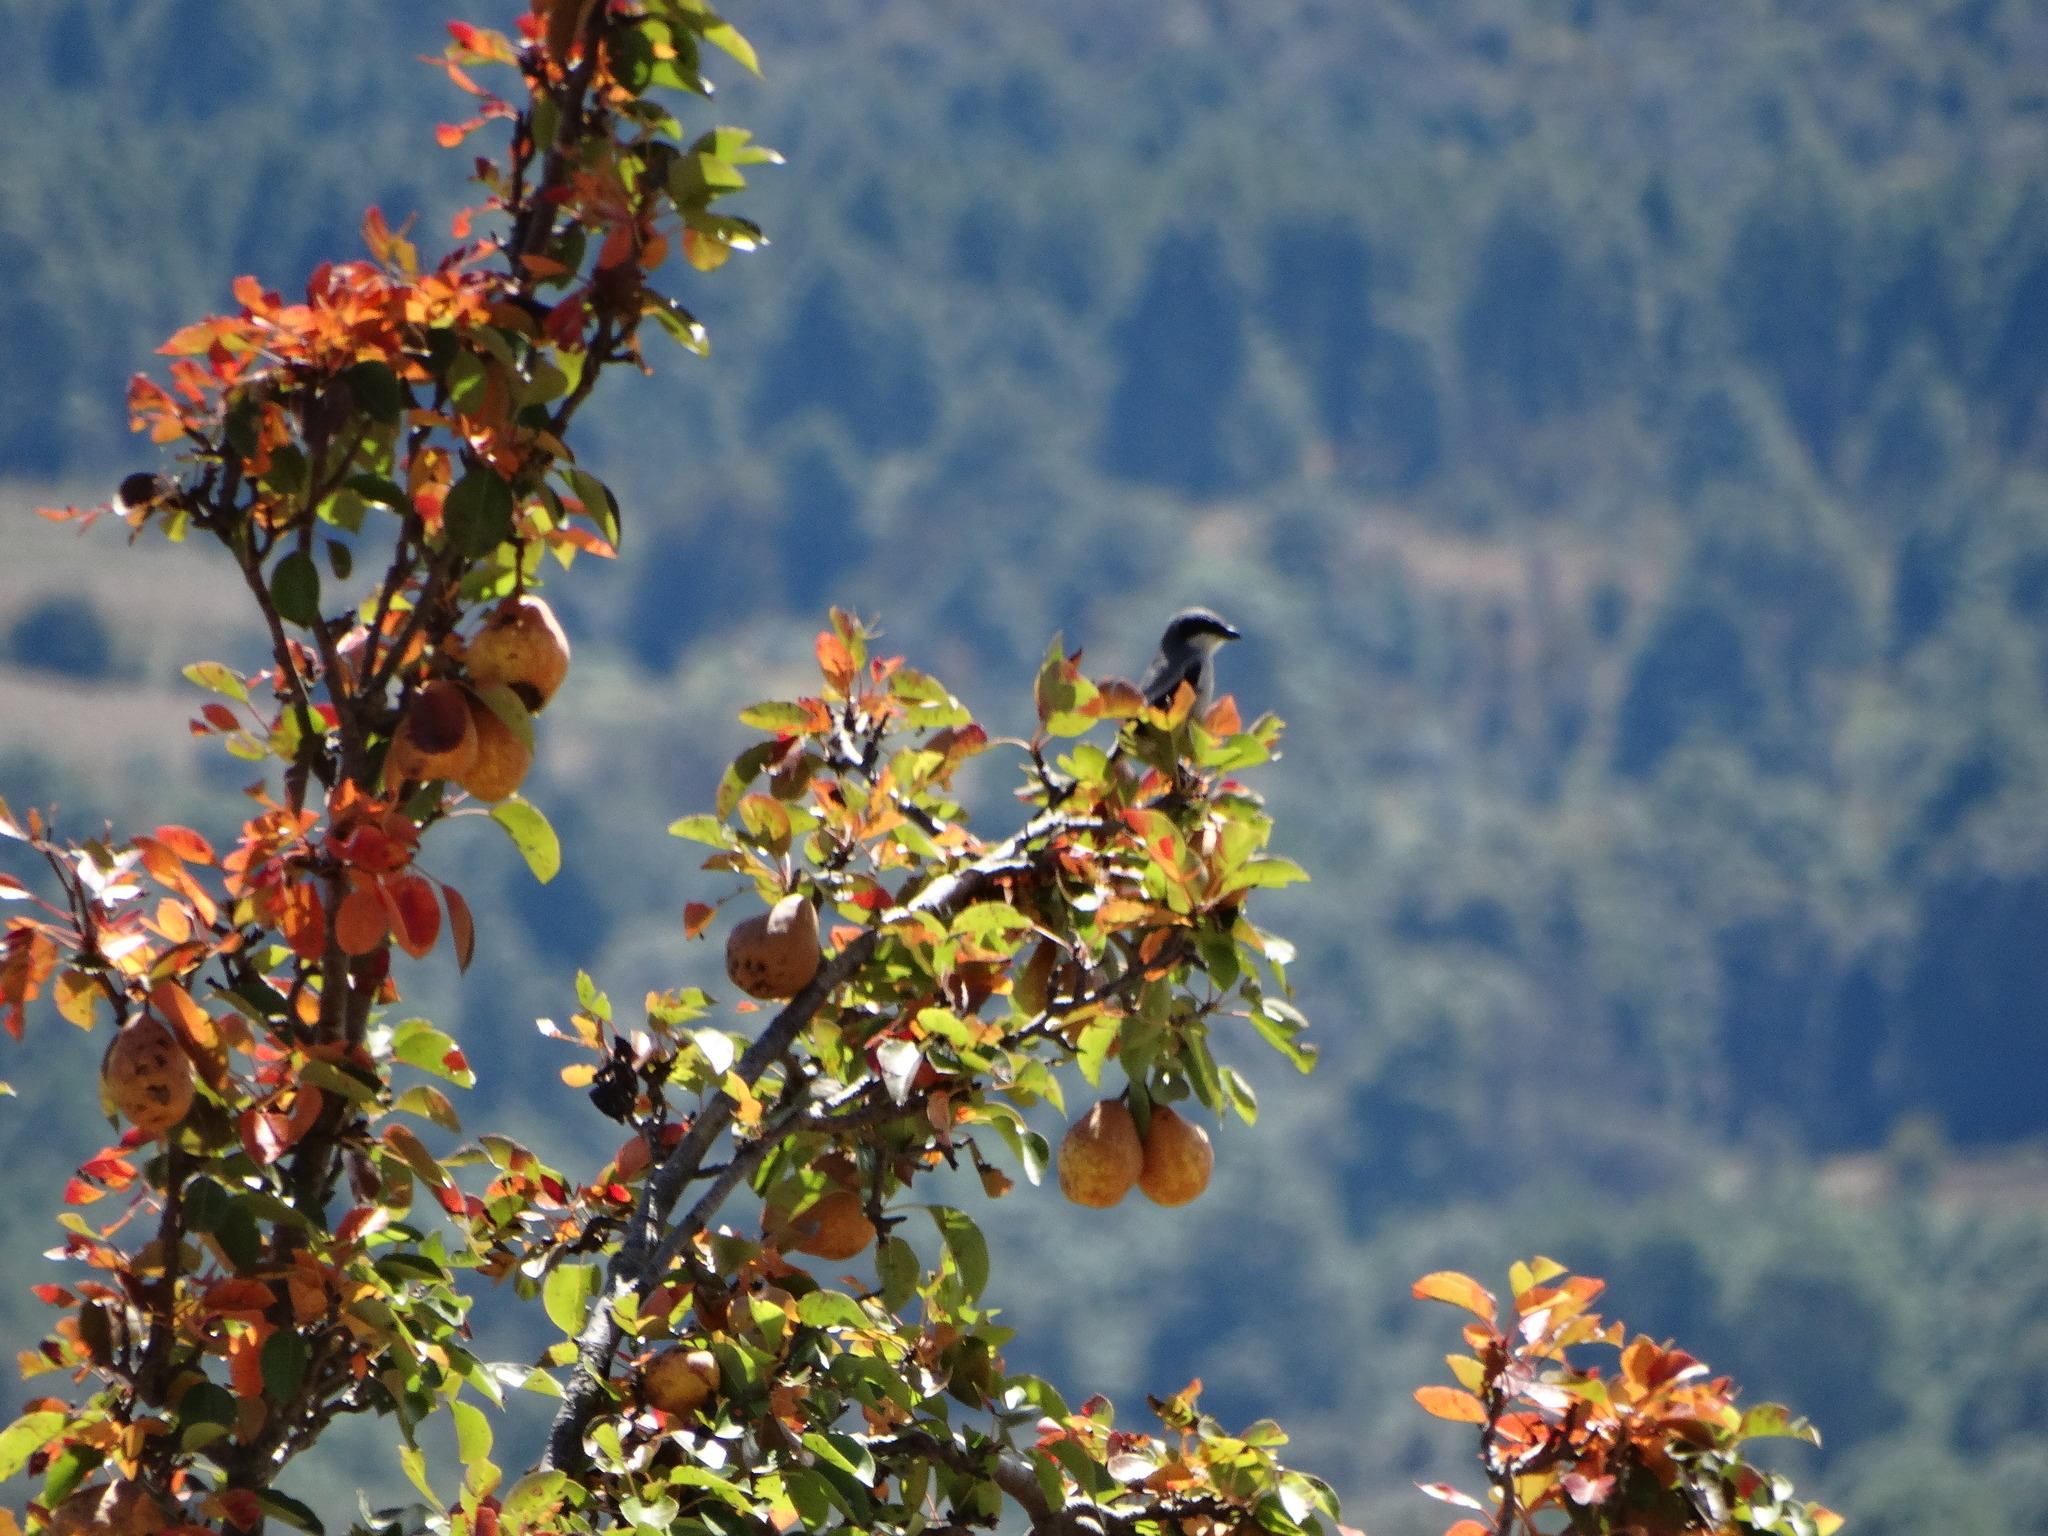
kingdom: Animalia
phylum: Chordata
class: Aves
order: Passeriformes
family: Laniidae
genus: Lanius
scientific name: Lanius ludovicianus
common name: Loggerhead shrike
